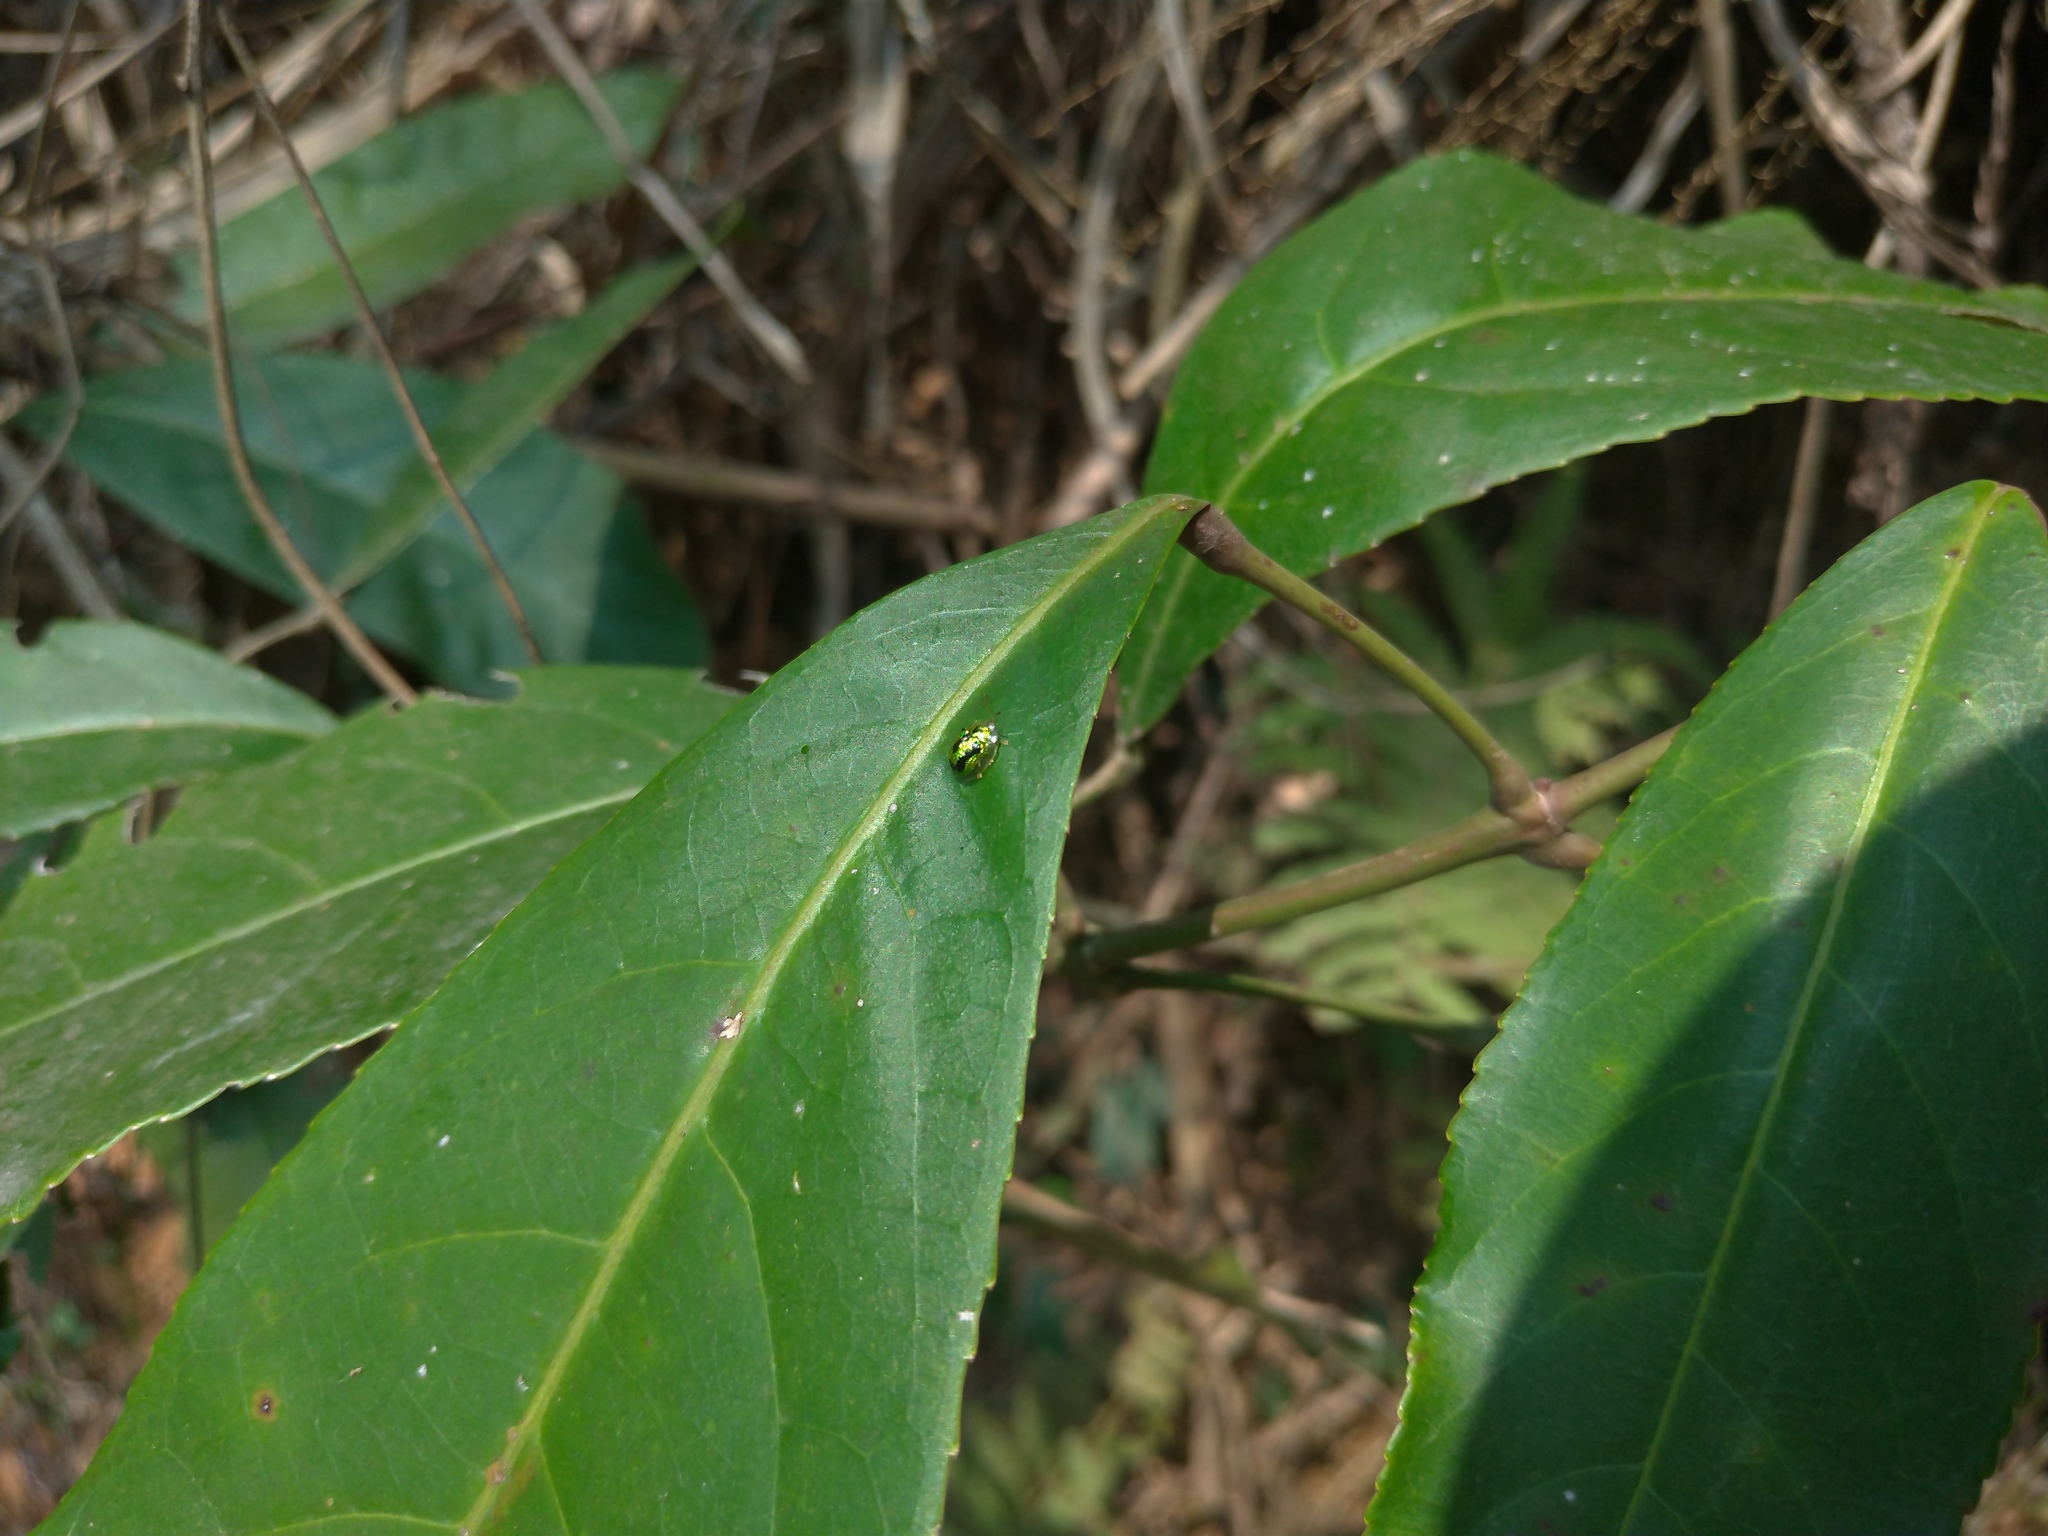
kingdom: Animalia
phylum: Arthropoda
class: Insecta
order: Coleoptera
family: Chrysomelidae
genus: Cassida
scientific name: Cassida circumdata
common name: Tortoise beetle
